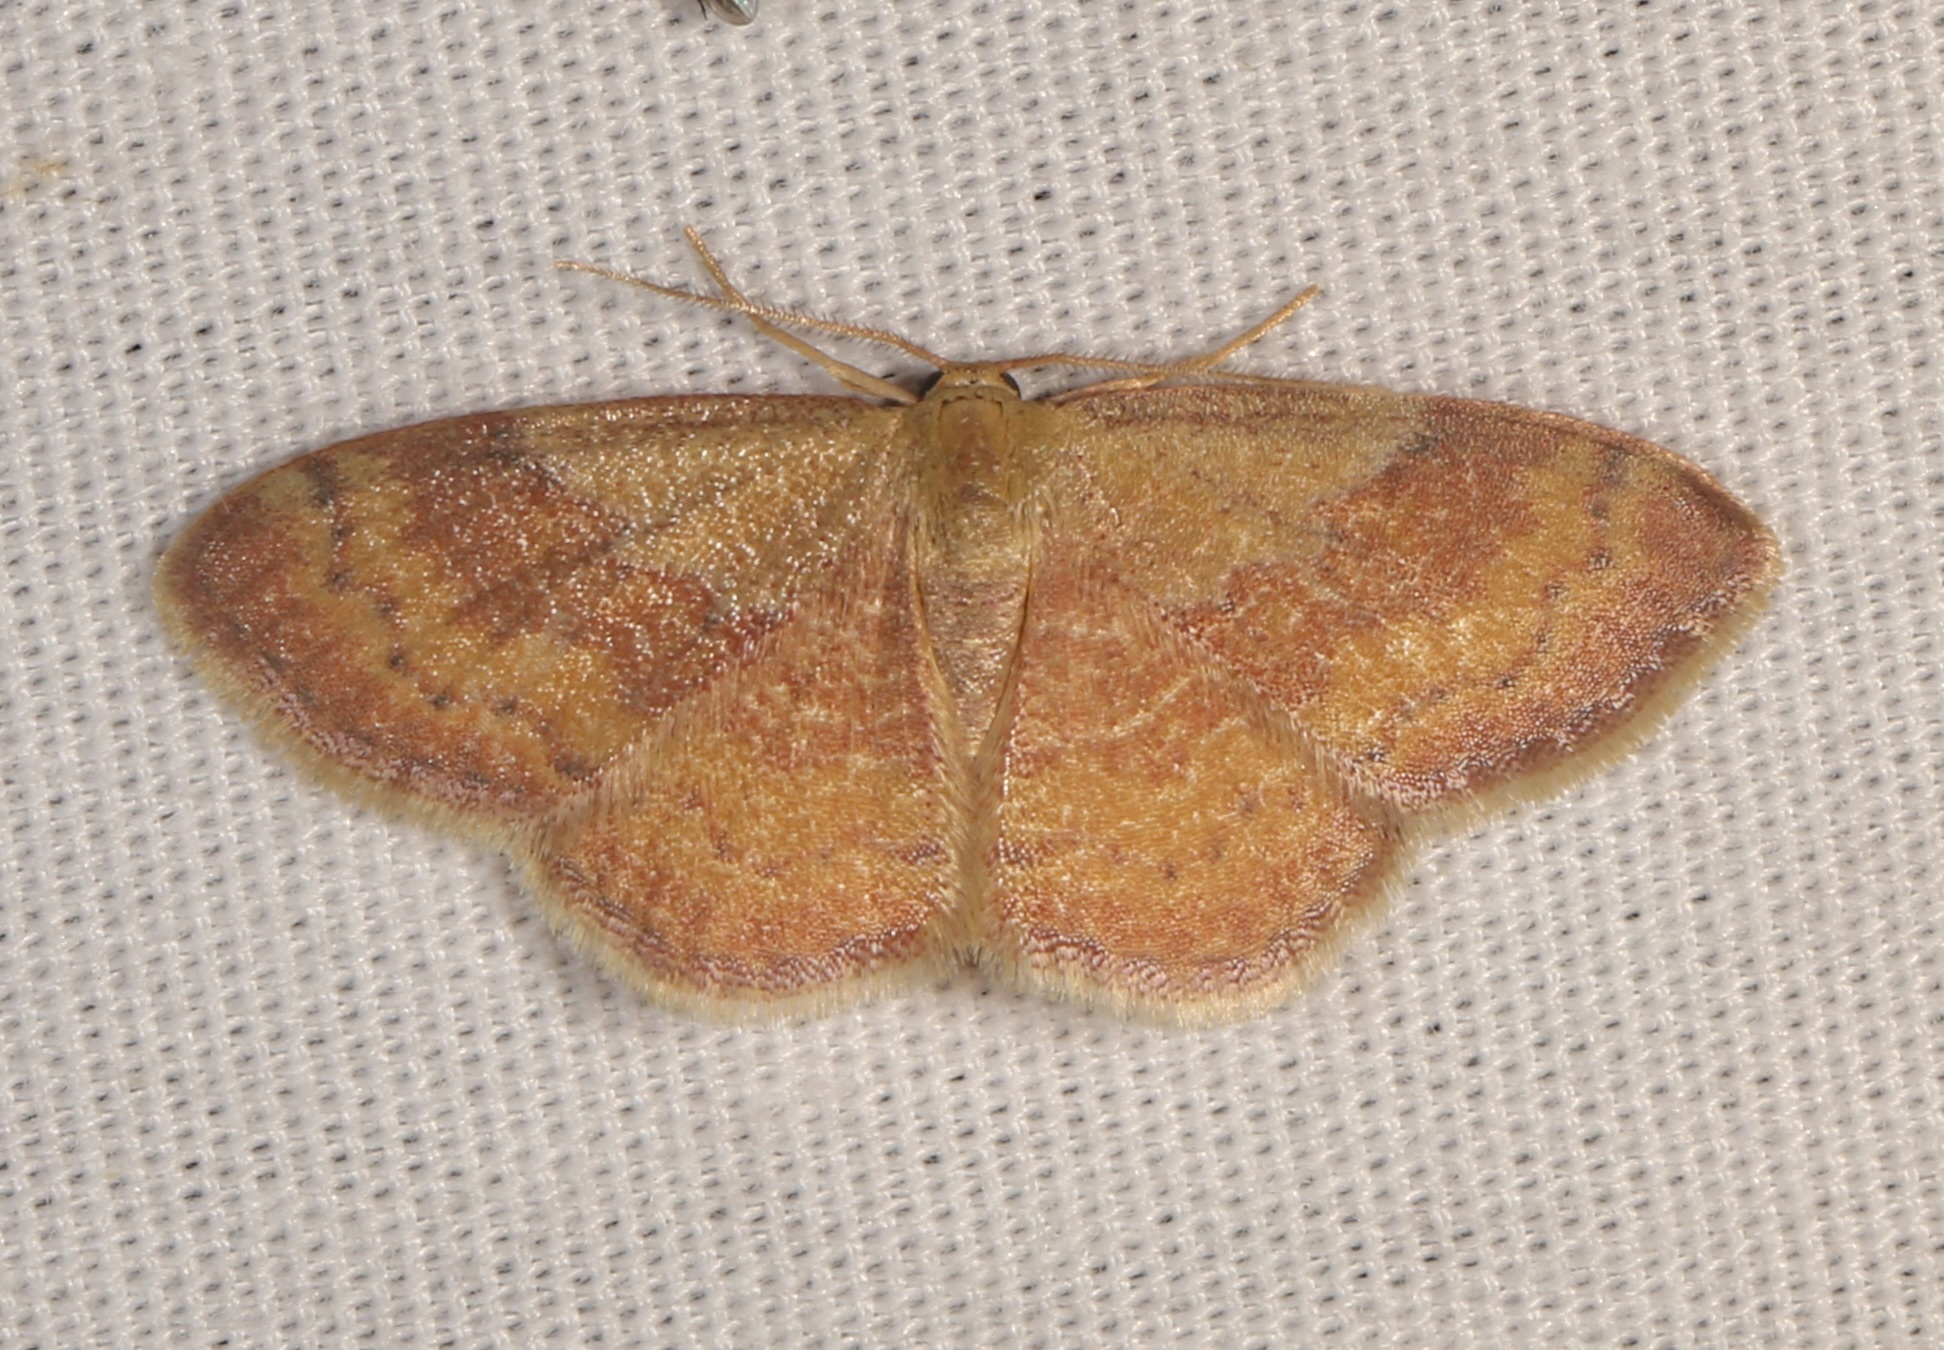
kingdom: Animalia
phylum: Arthropoda
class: Insecta
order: Lepidoptera
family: Geometridae
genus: Leptostales
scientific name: Leptostales ferruminaria
